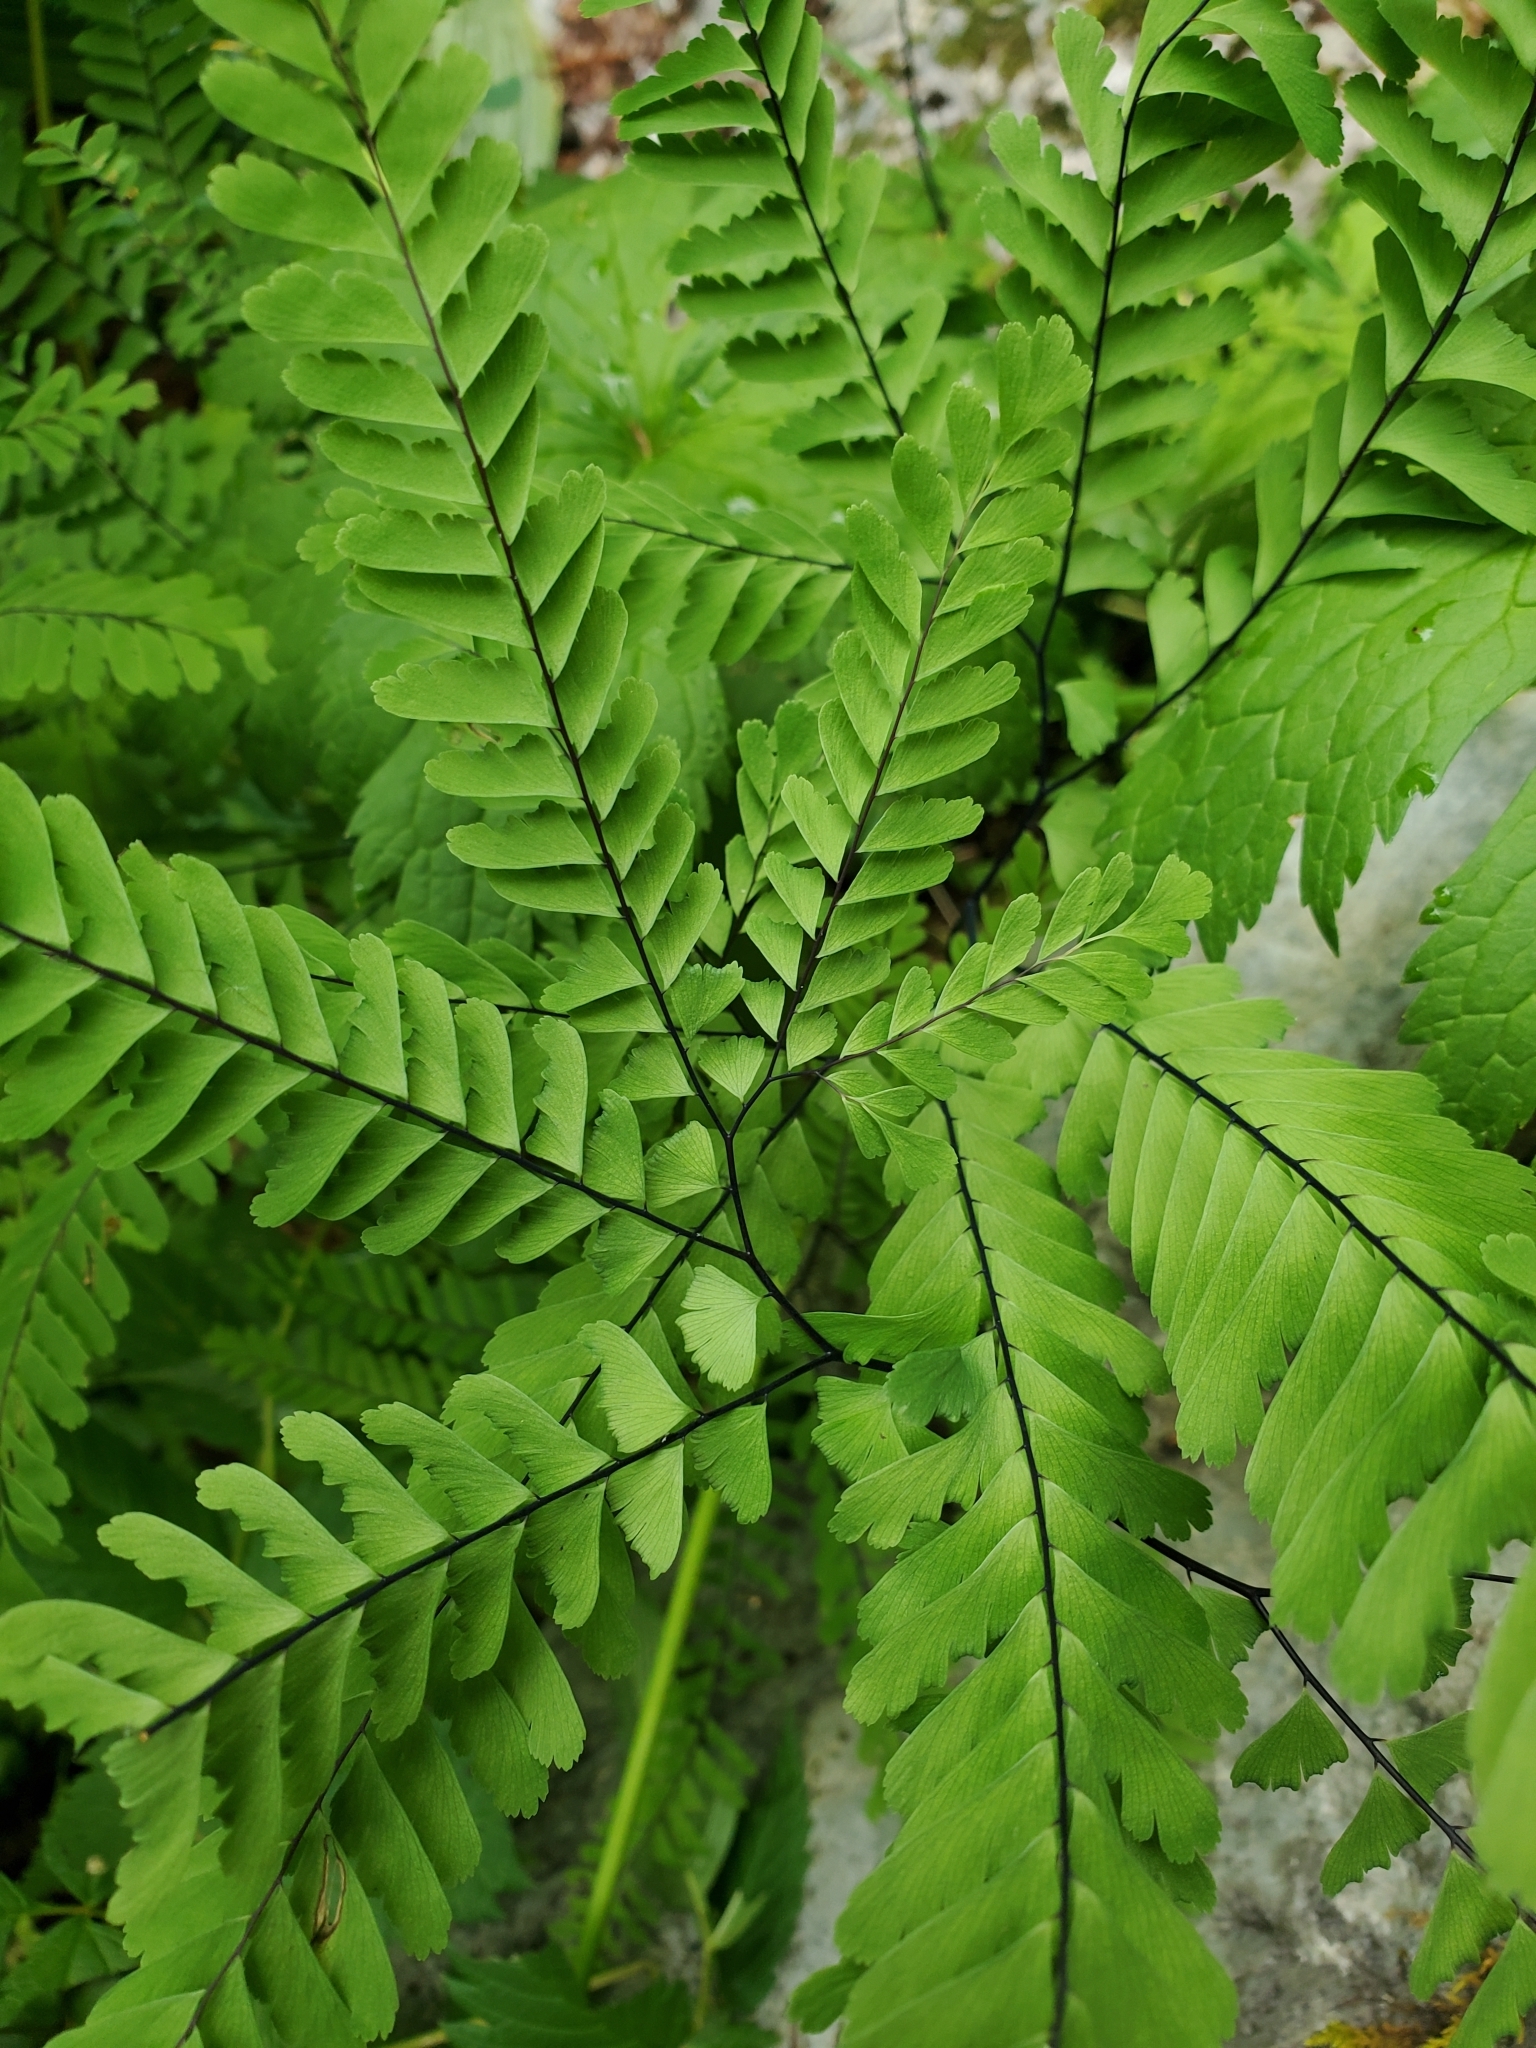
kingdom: Plantae
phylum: Tracheophyta
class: Polypodiopsida
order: Polypodiales
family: Pteridaceae
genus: Adiantum
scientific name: Adiantum aleuticum
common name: Aleutian maidenhair fern
